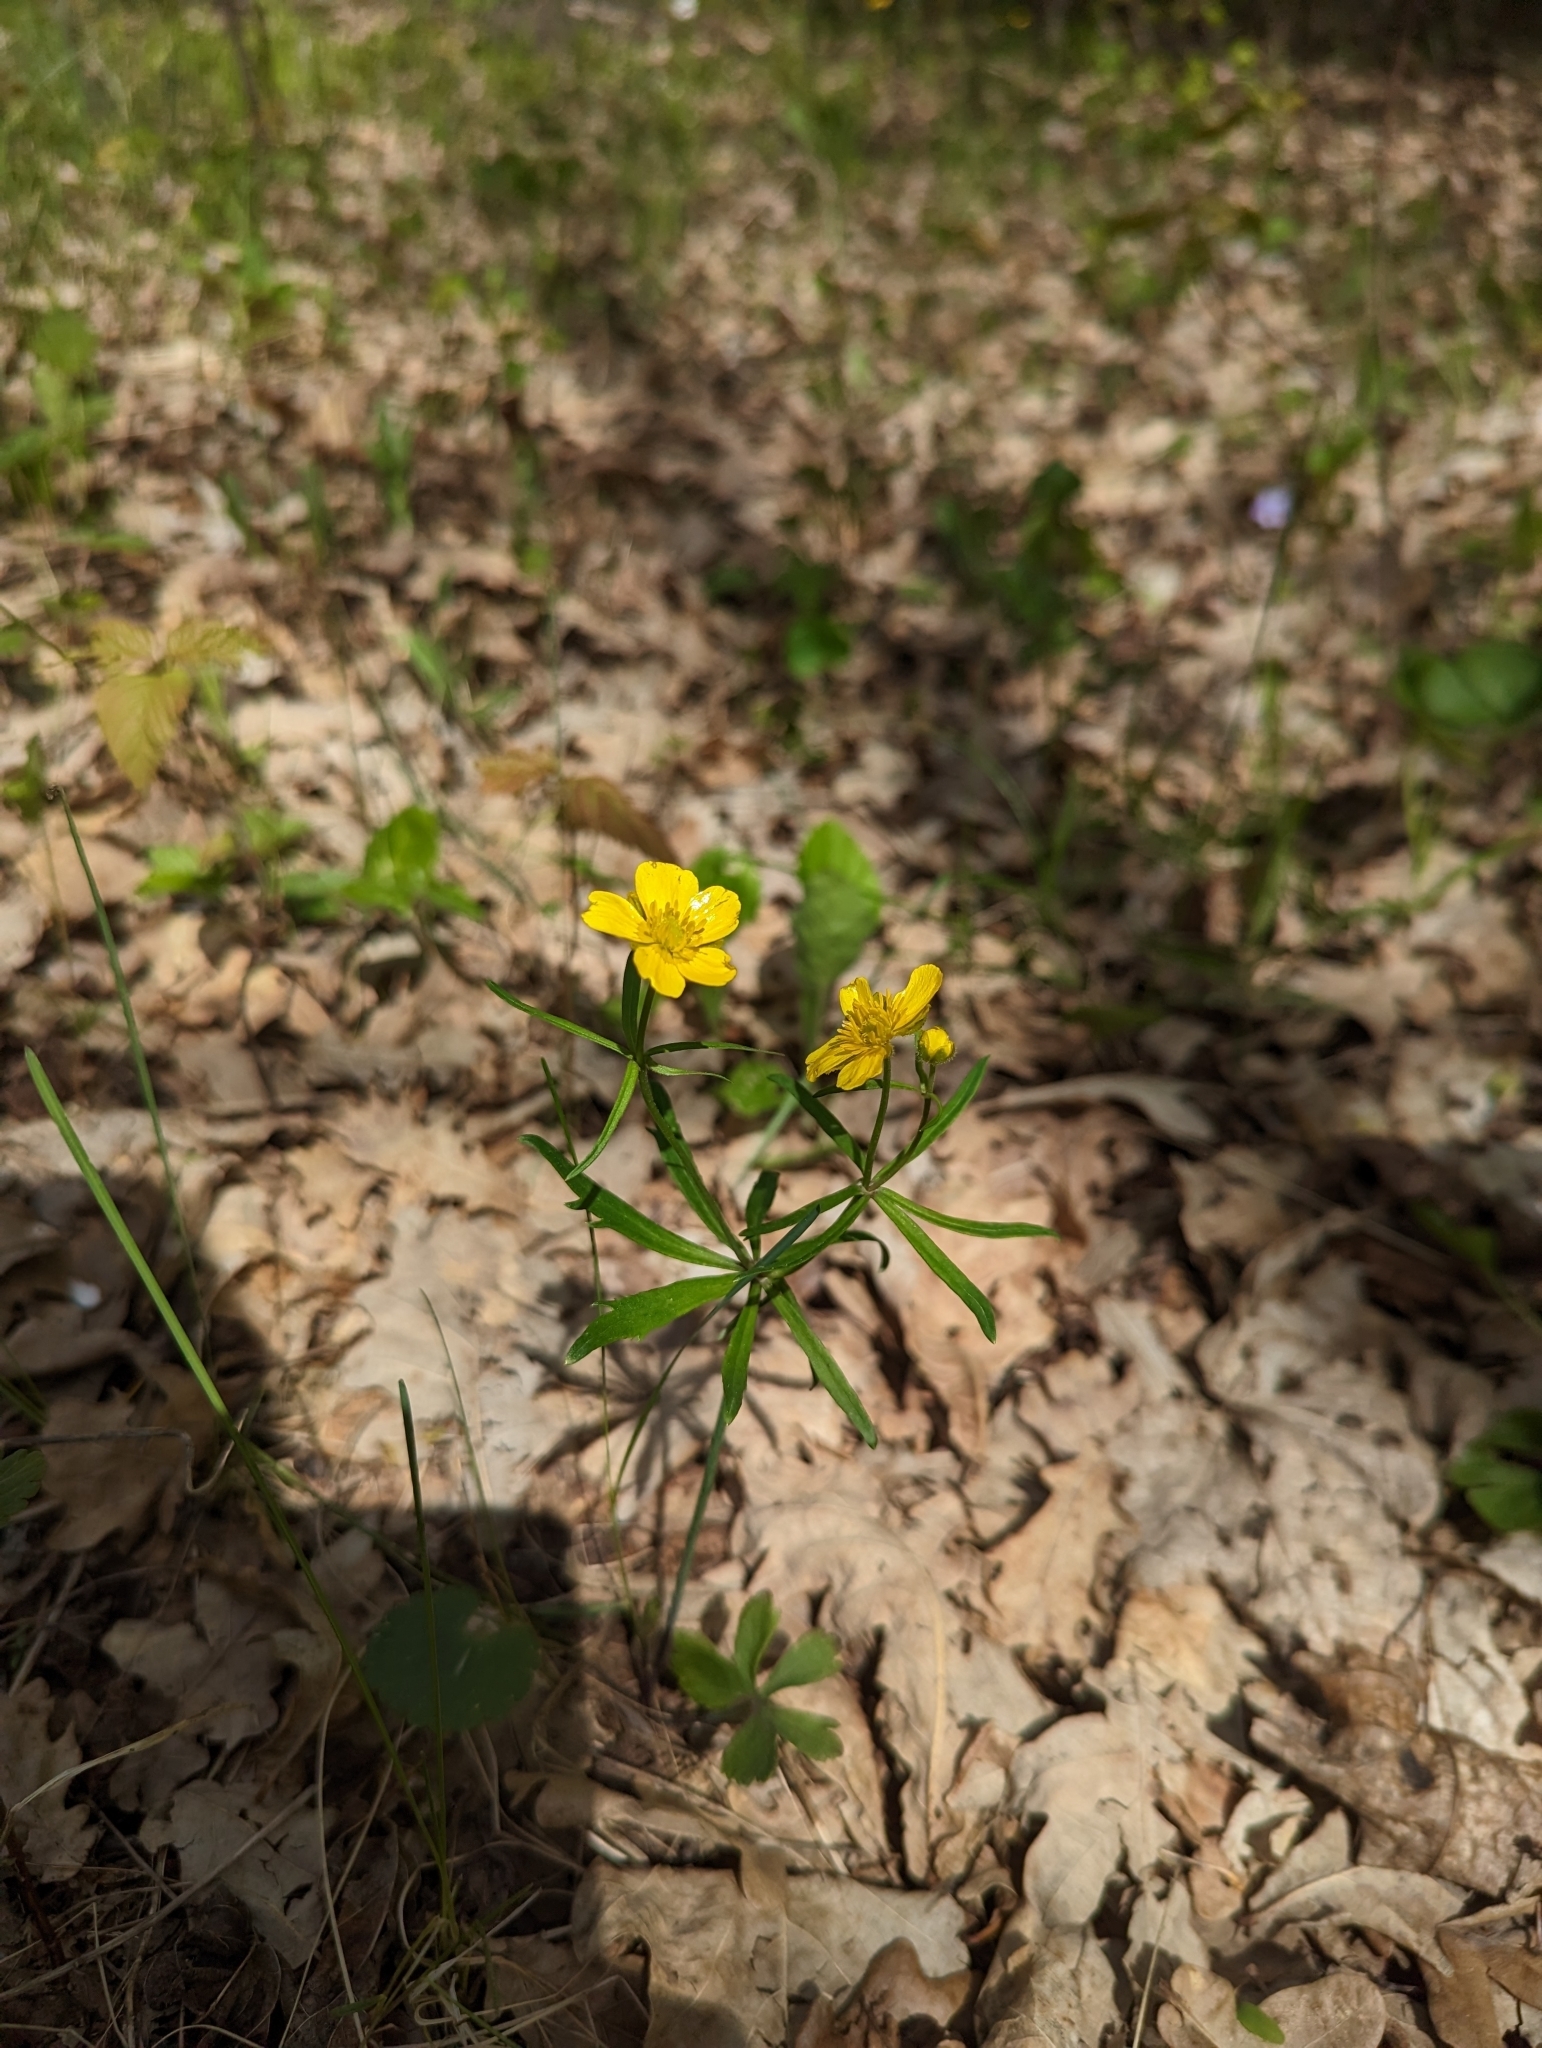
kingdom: Plantae
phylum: Tracheophyta
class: Magnoliopsida
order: Ranunculales
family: Ranunculaceae
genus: Ranunculus
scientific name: Ranunculus auricomus
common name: Goldilocks buttercup
